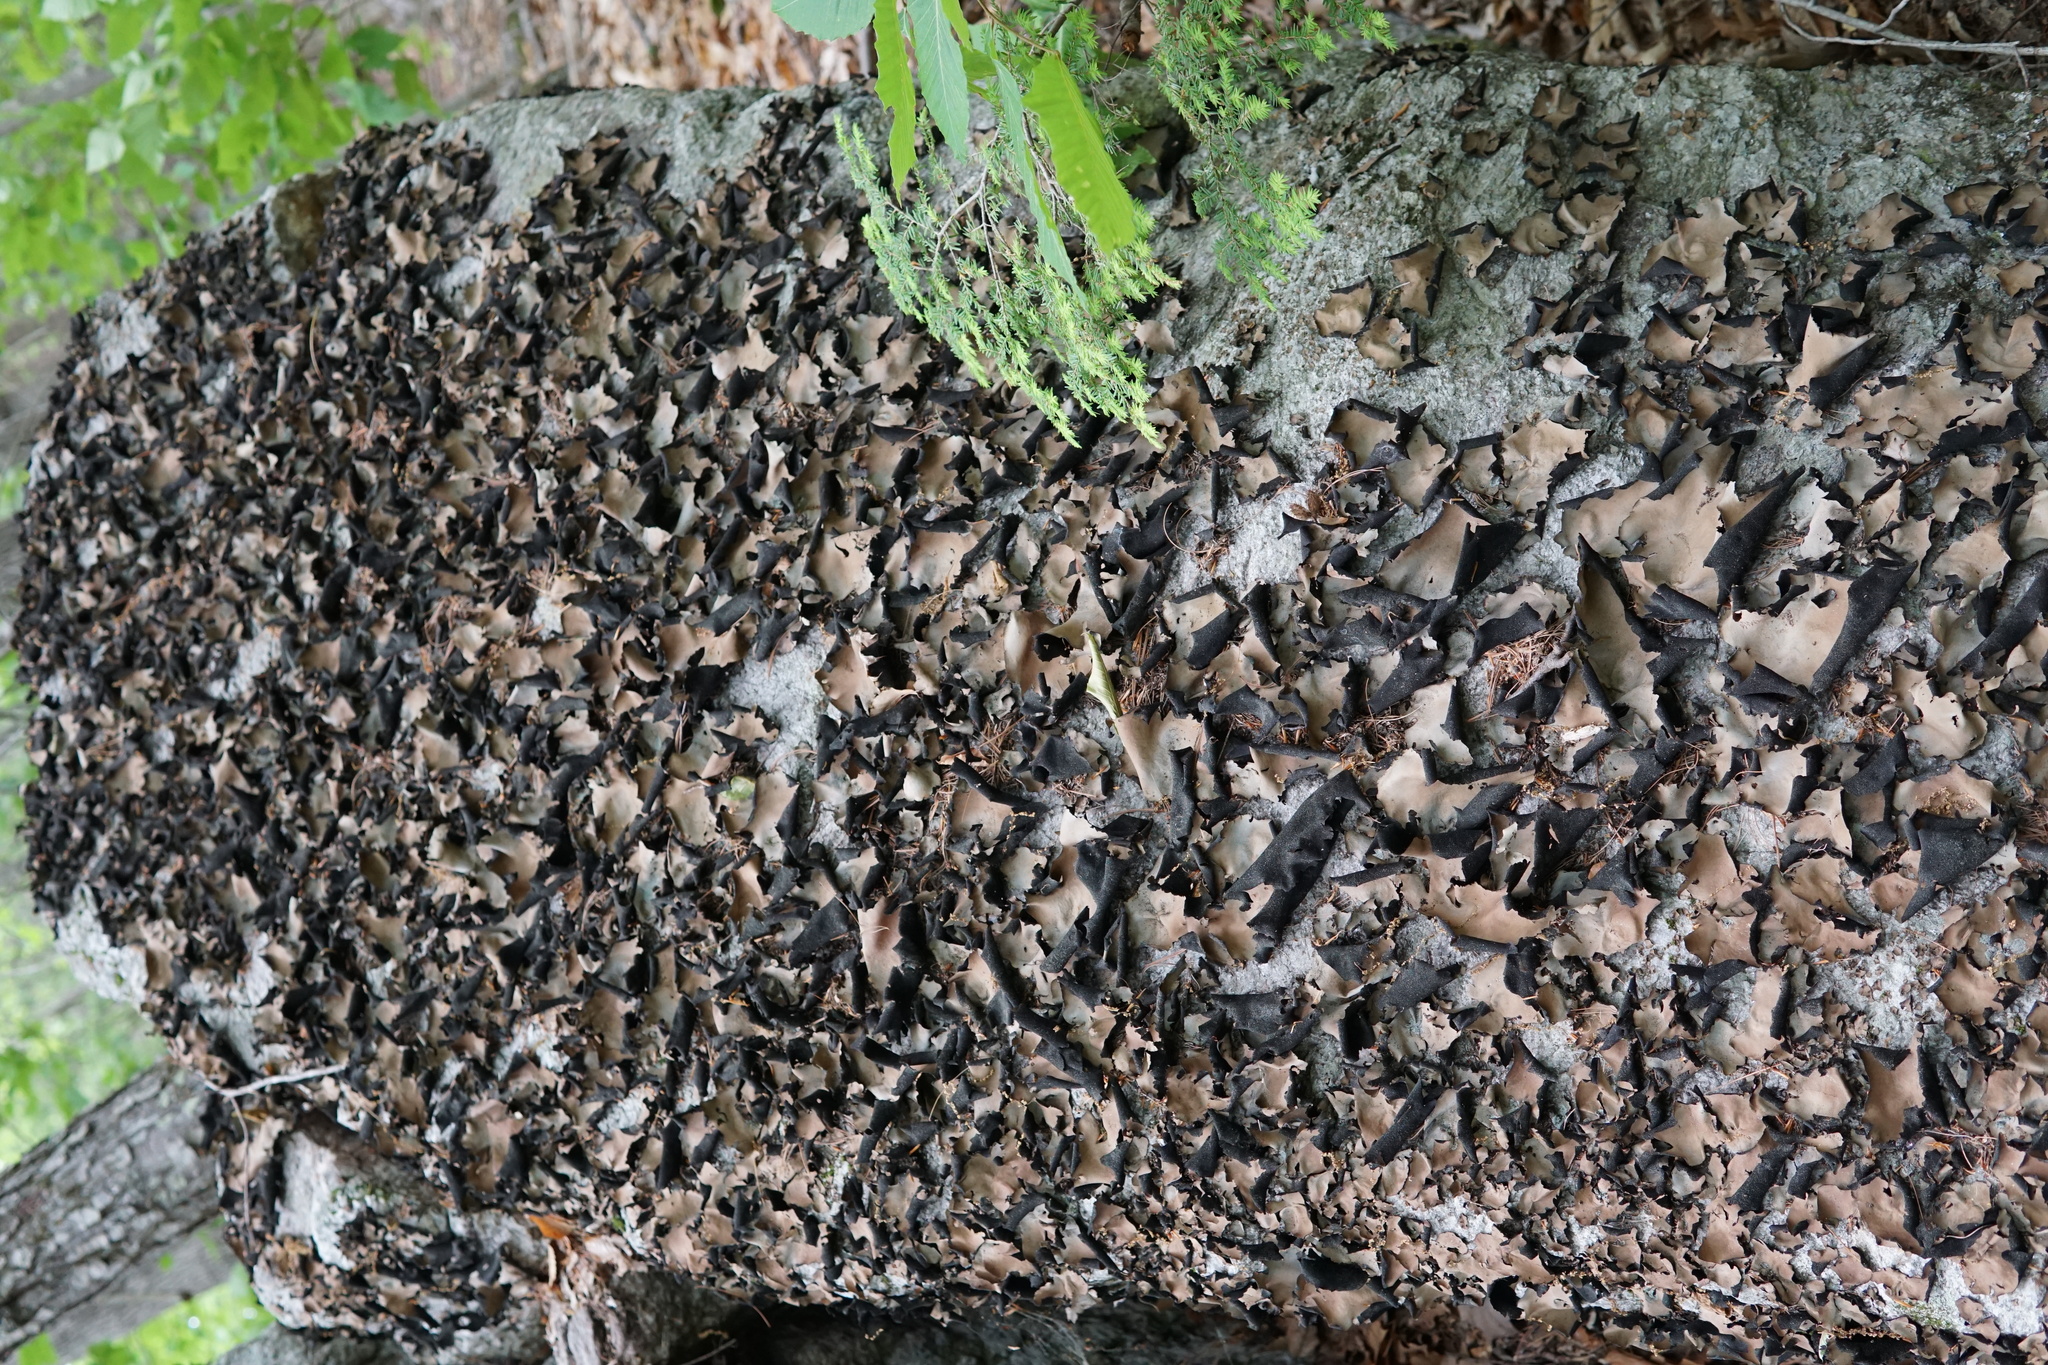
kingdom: Fungi
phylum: Ascomycota
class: Lecanoromycetes
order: Umbilicariales
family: Umbilicariaceae
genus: Umbilicaria
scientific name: Umbilicaria mammulata
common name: Smooth rock tripe
